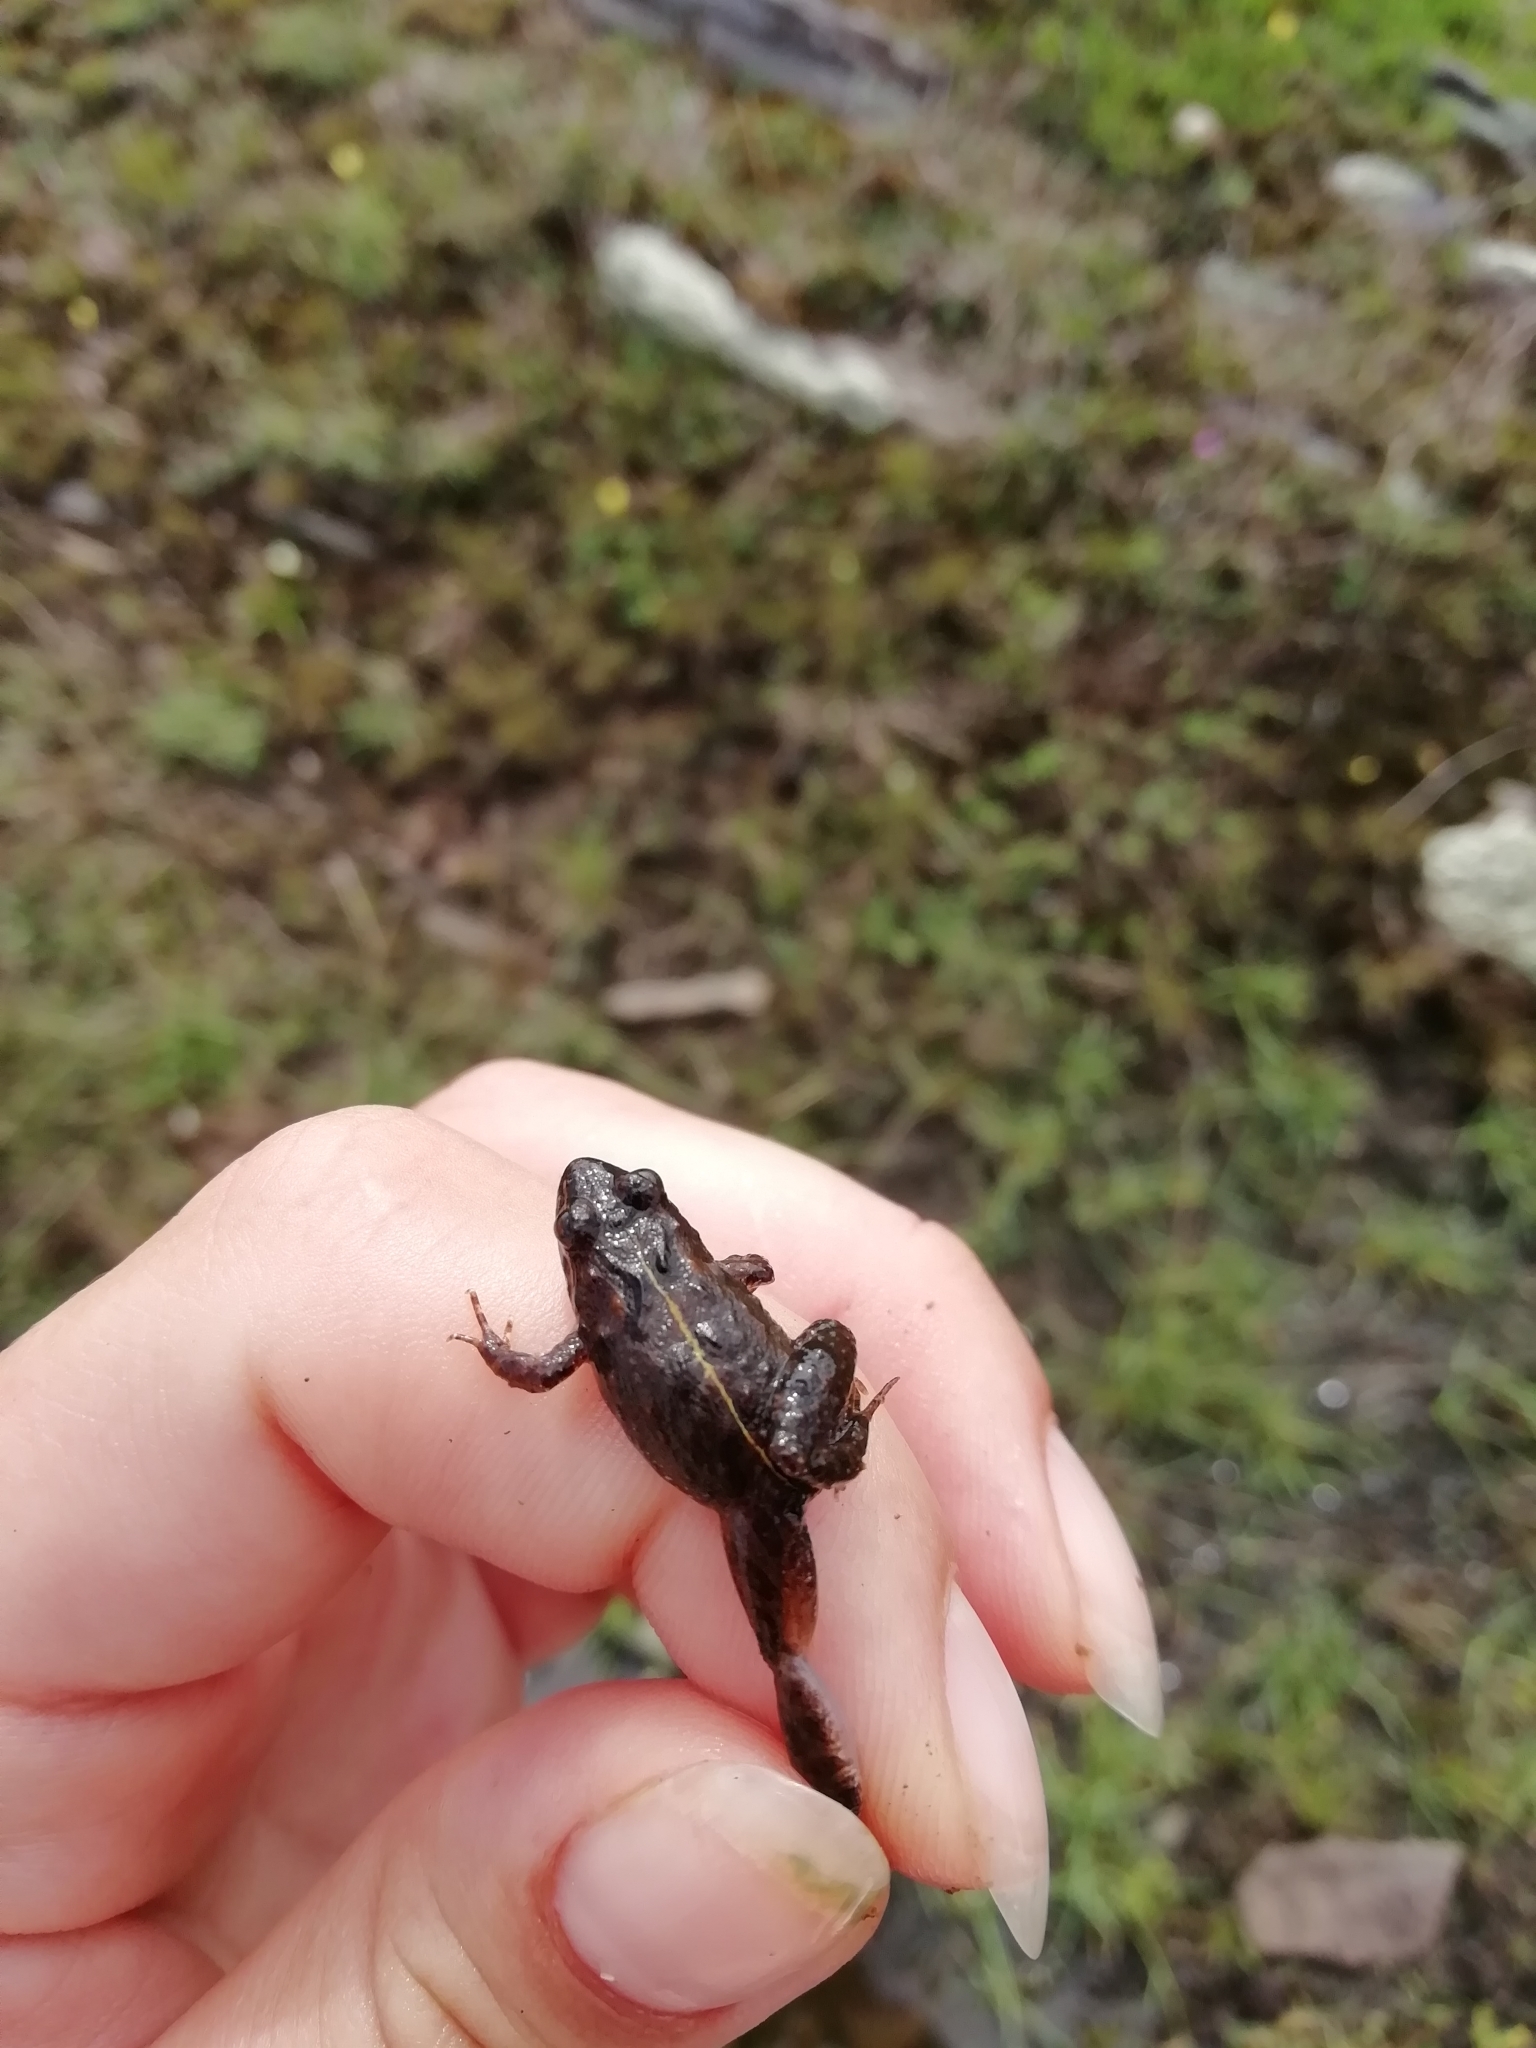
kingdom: Animalia
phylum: Chordata
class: Amphibia
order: Anura
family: Leptodactylidae
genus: Pseudopaludicola
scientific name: Pseudopaludicola falcipes
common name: Hensel’s swamp frog
